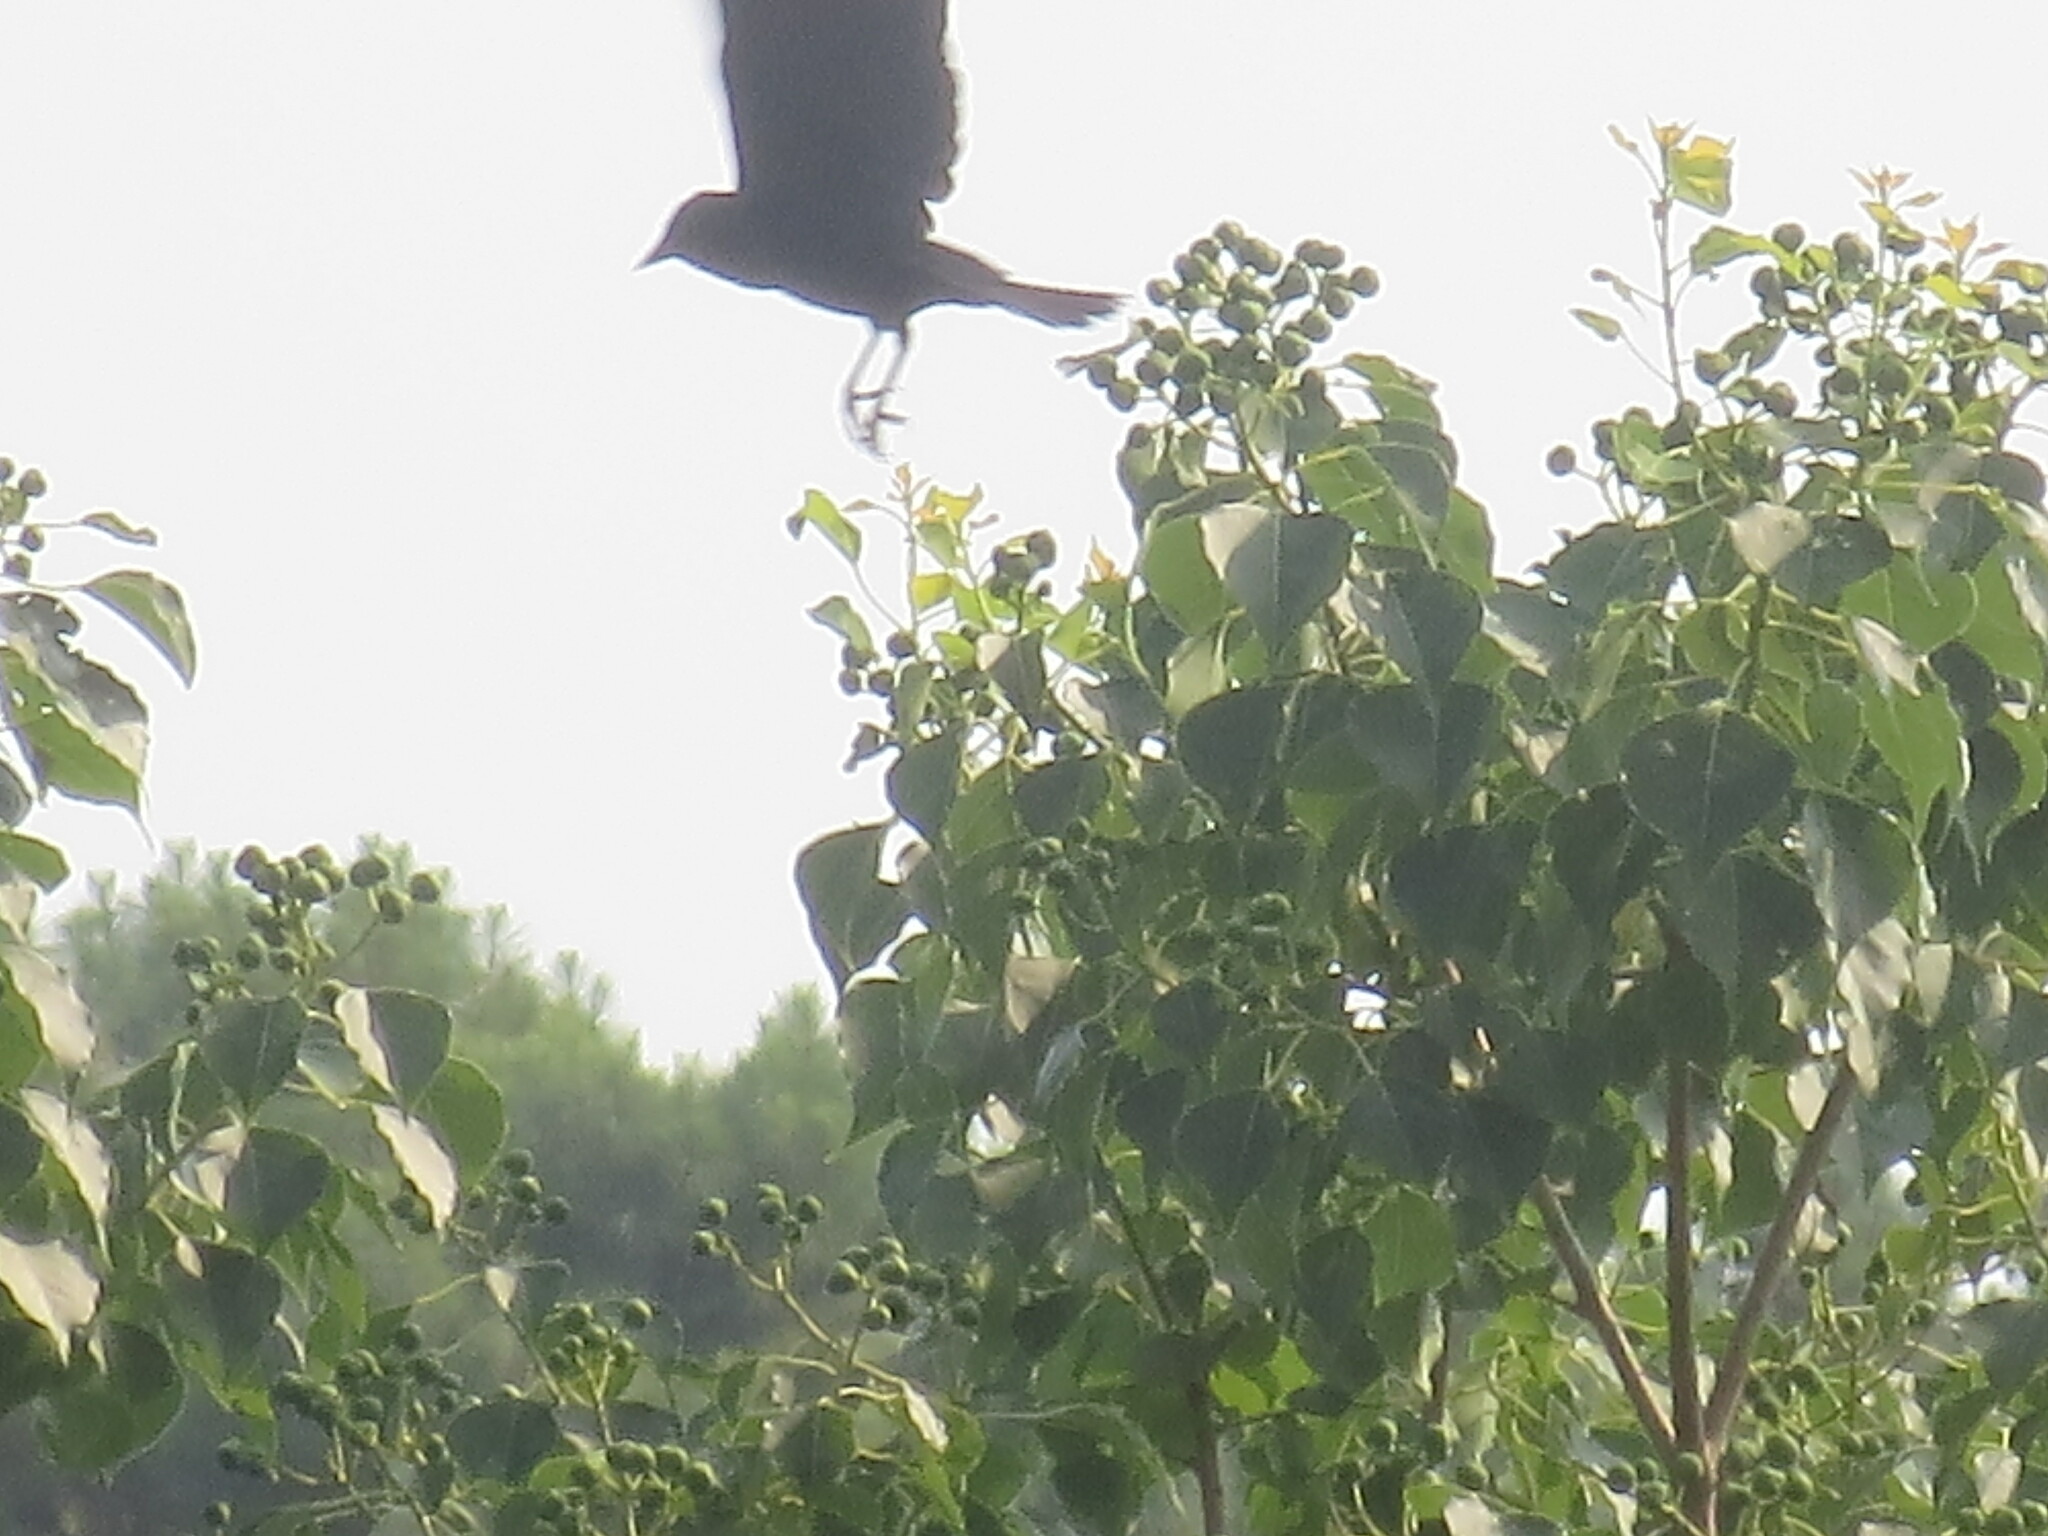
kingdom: Plantae
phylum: Tracheophyta
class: Magnoliopsida
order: Malpighiales
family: Euphorbiaceae
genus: Triadica
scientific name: Triadica sebifera
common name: Chinese tallow
